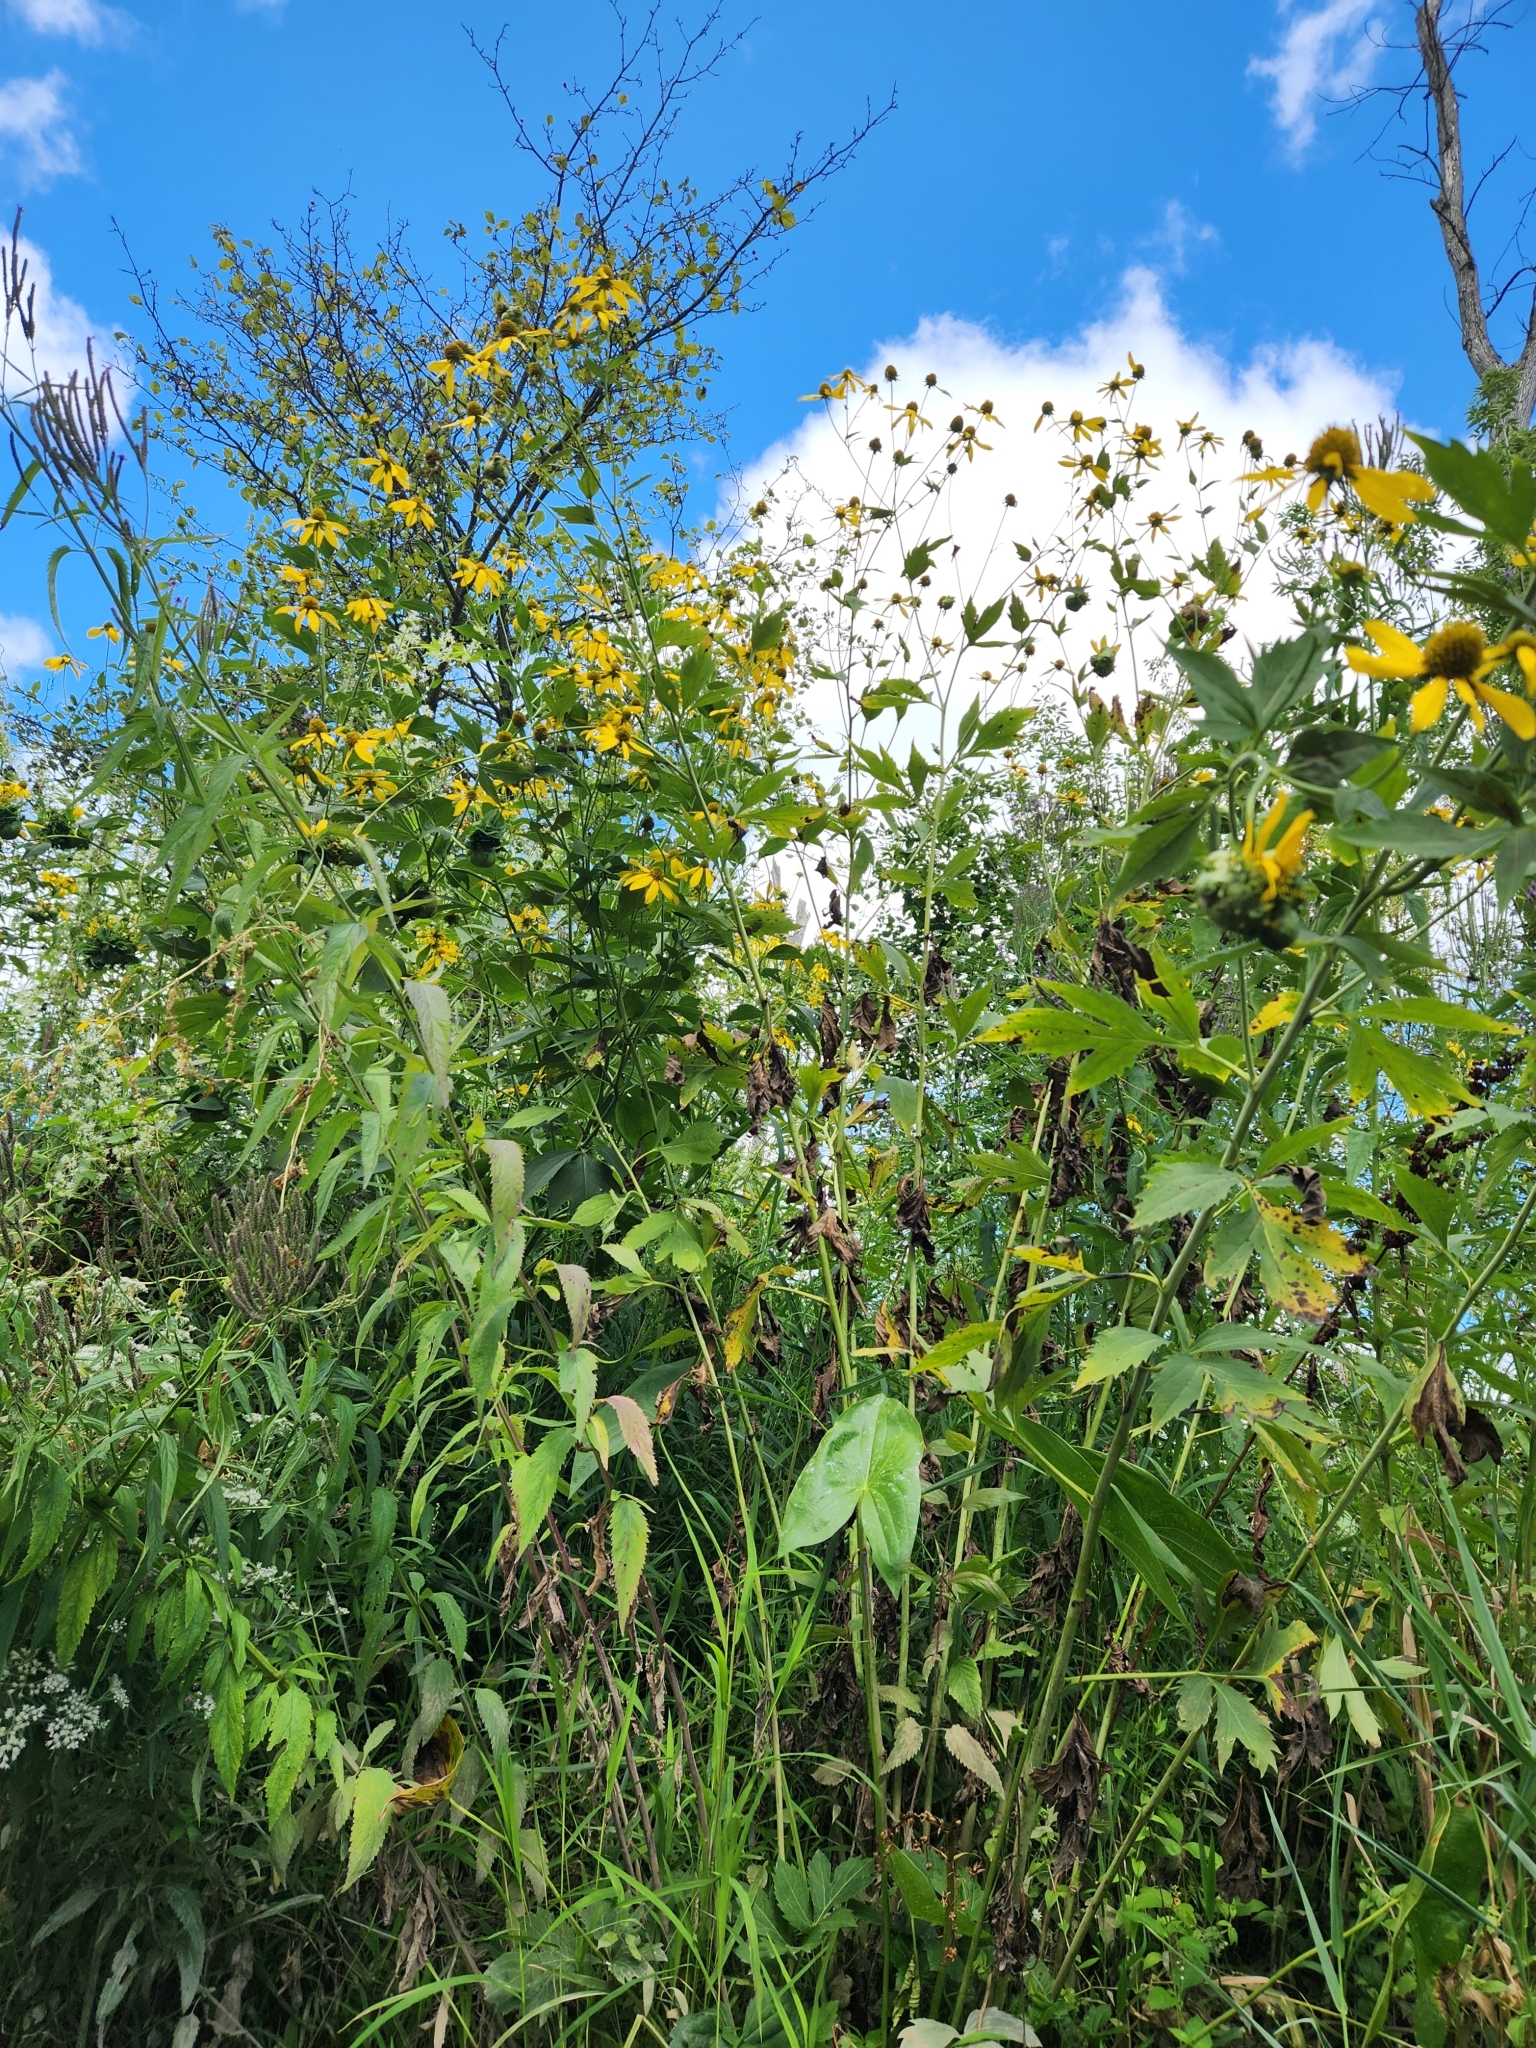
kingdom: Plantae
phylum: Tracheophyta
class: Magnoliopsida
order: Asterales
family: Asteraceae
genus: Rudbeckia
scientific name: Rudbeckia laciniata
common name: Coneflower
